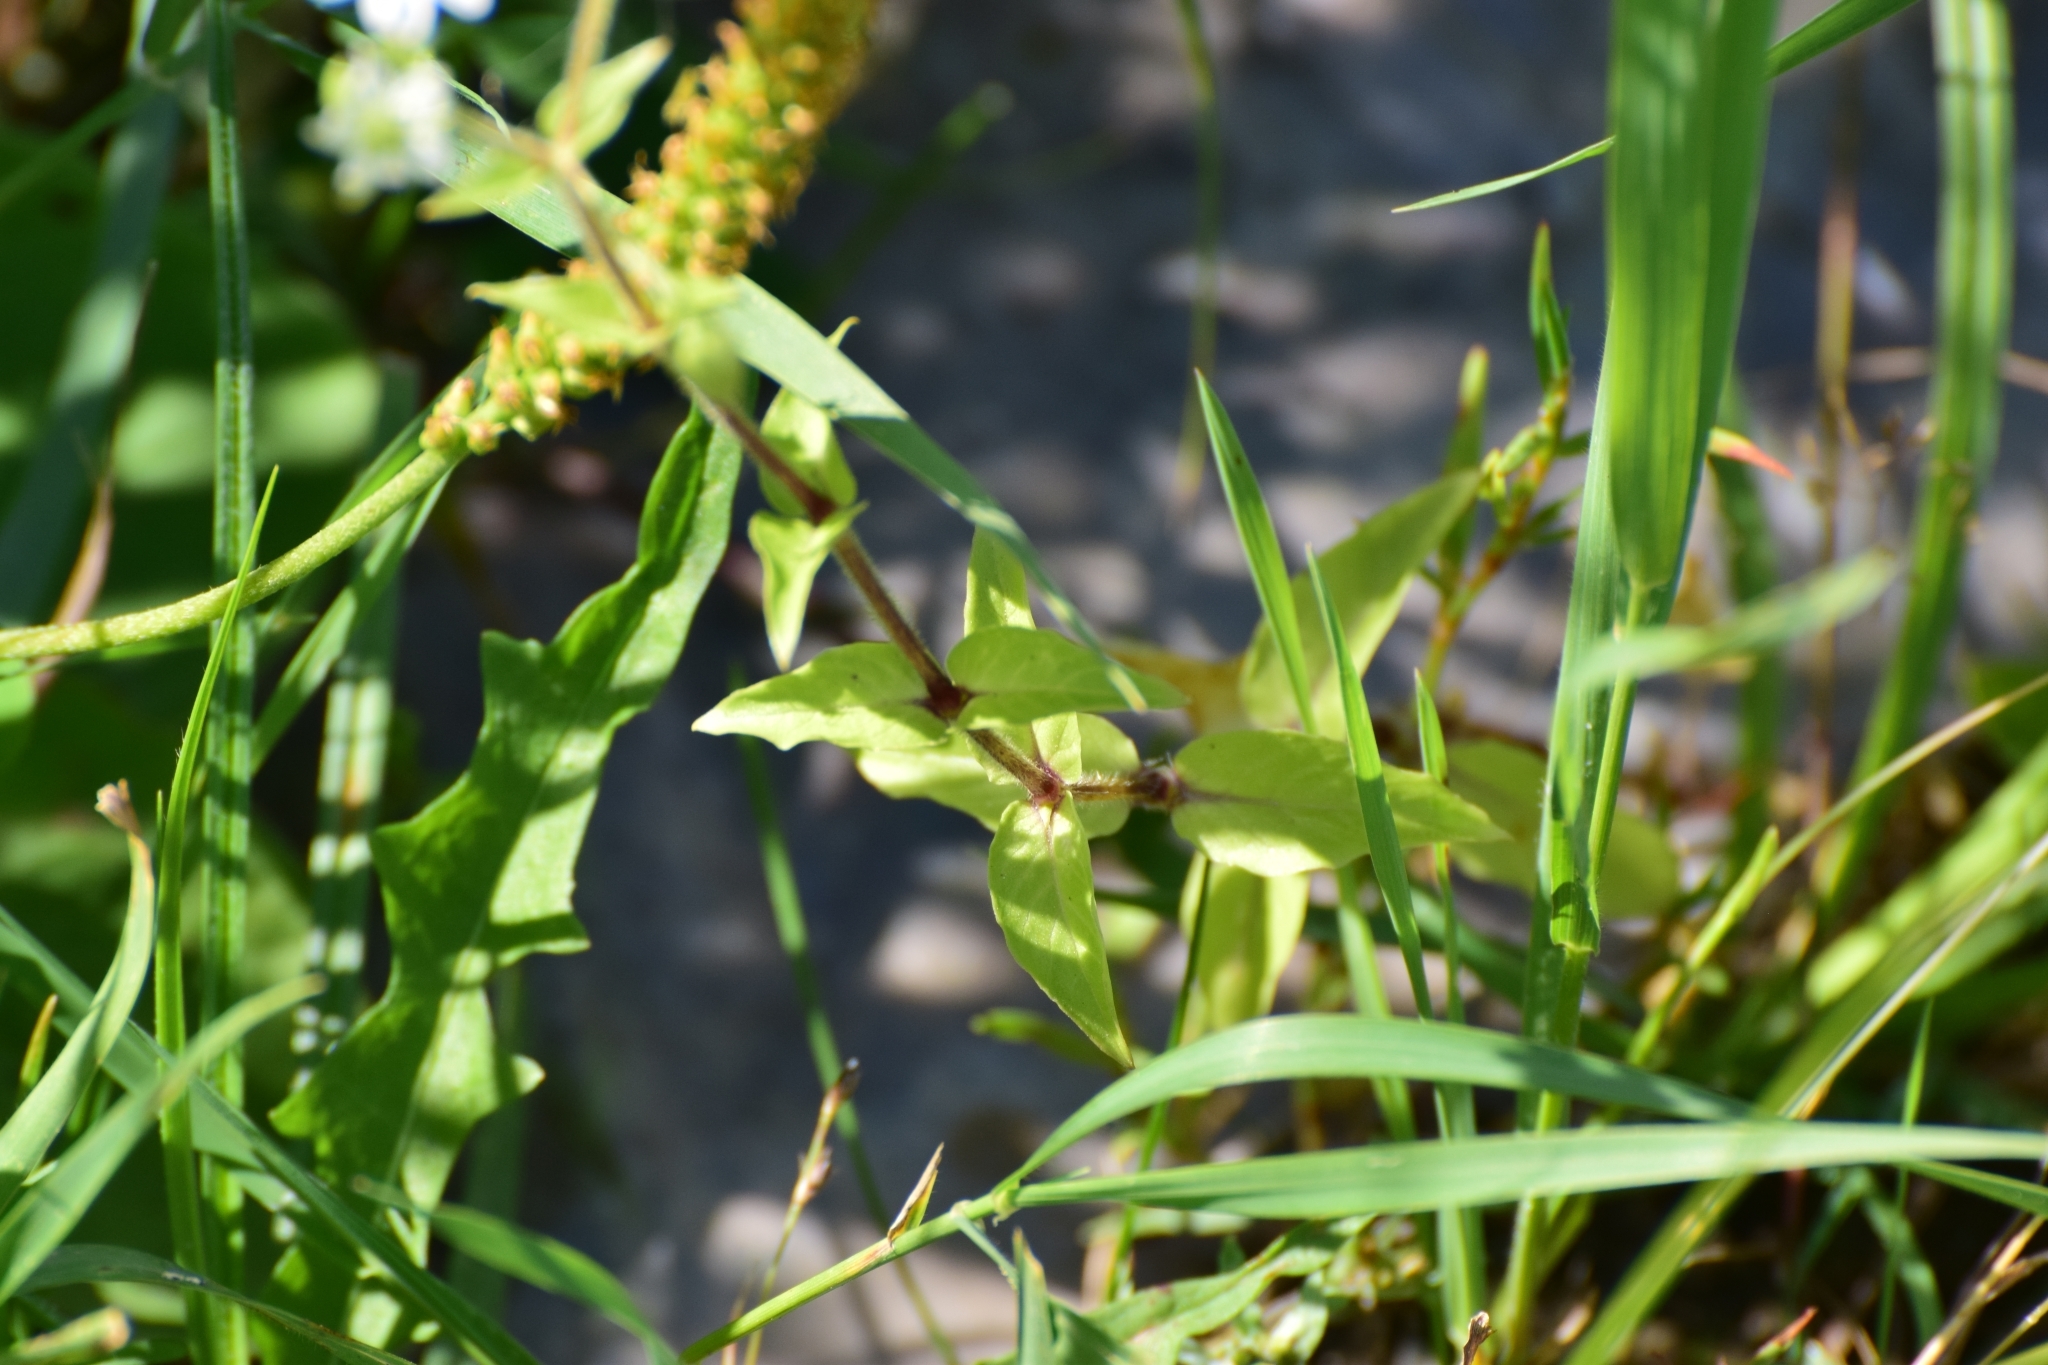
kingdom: Plantae
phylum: Tracheophyta
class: Magnoliopsida
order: Caryophyllales
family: Caryophyllaceae
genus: Stellaria
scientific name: Stellaria aquatica
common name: Water chickweed
